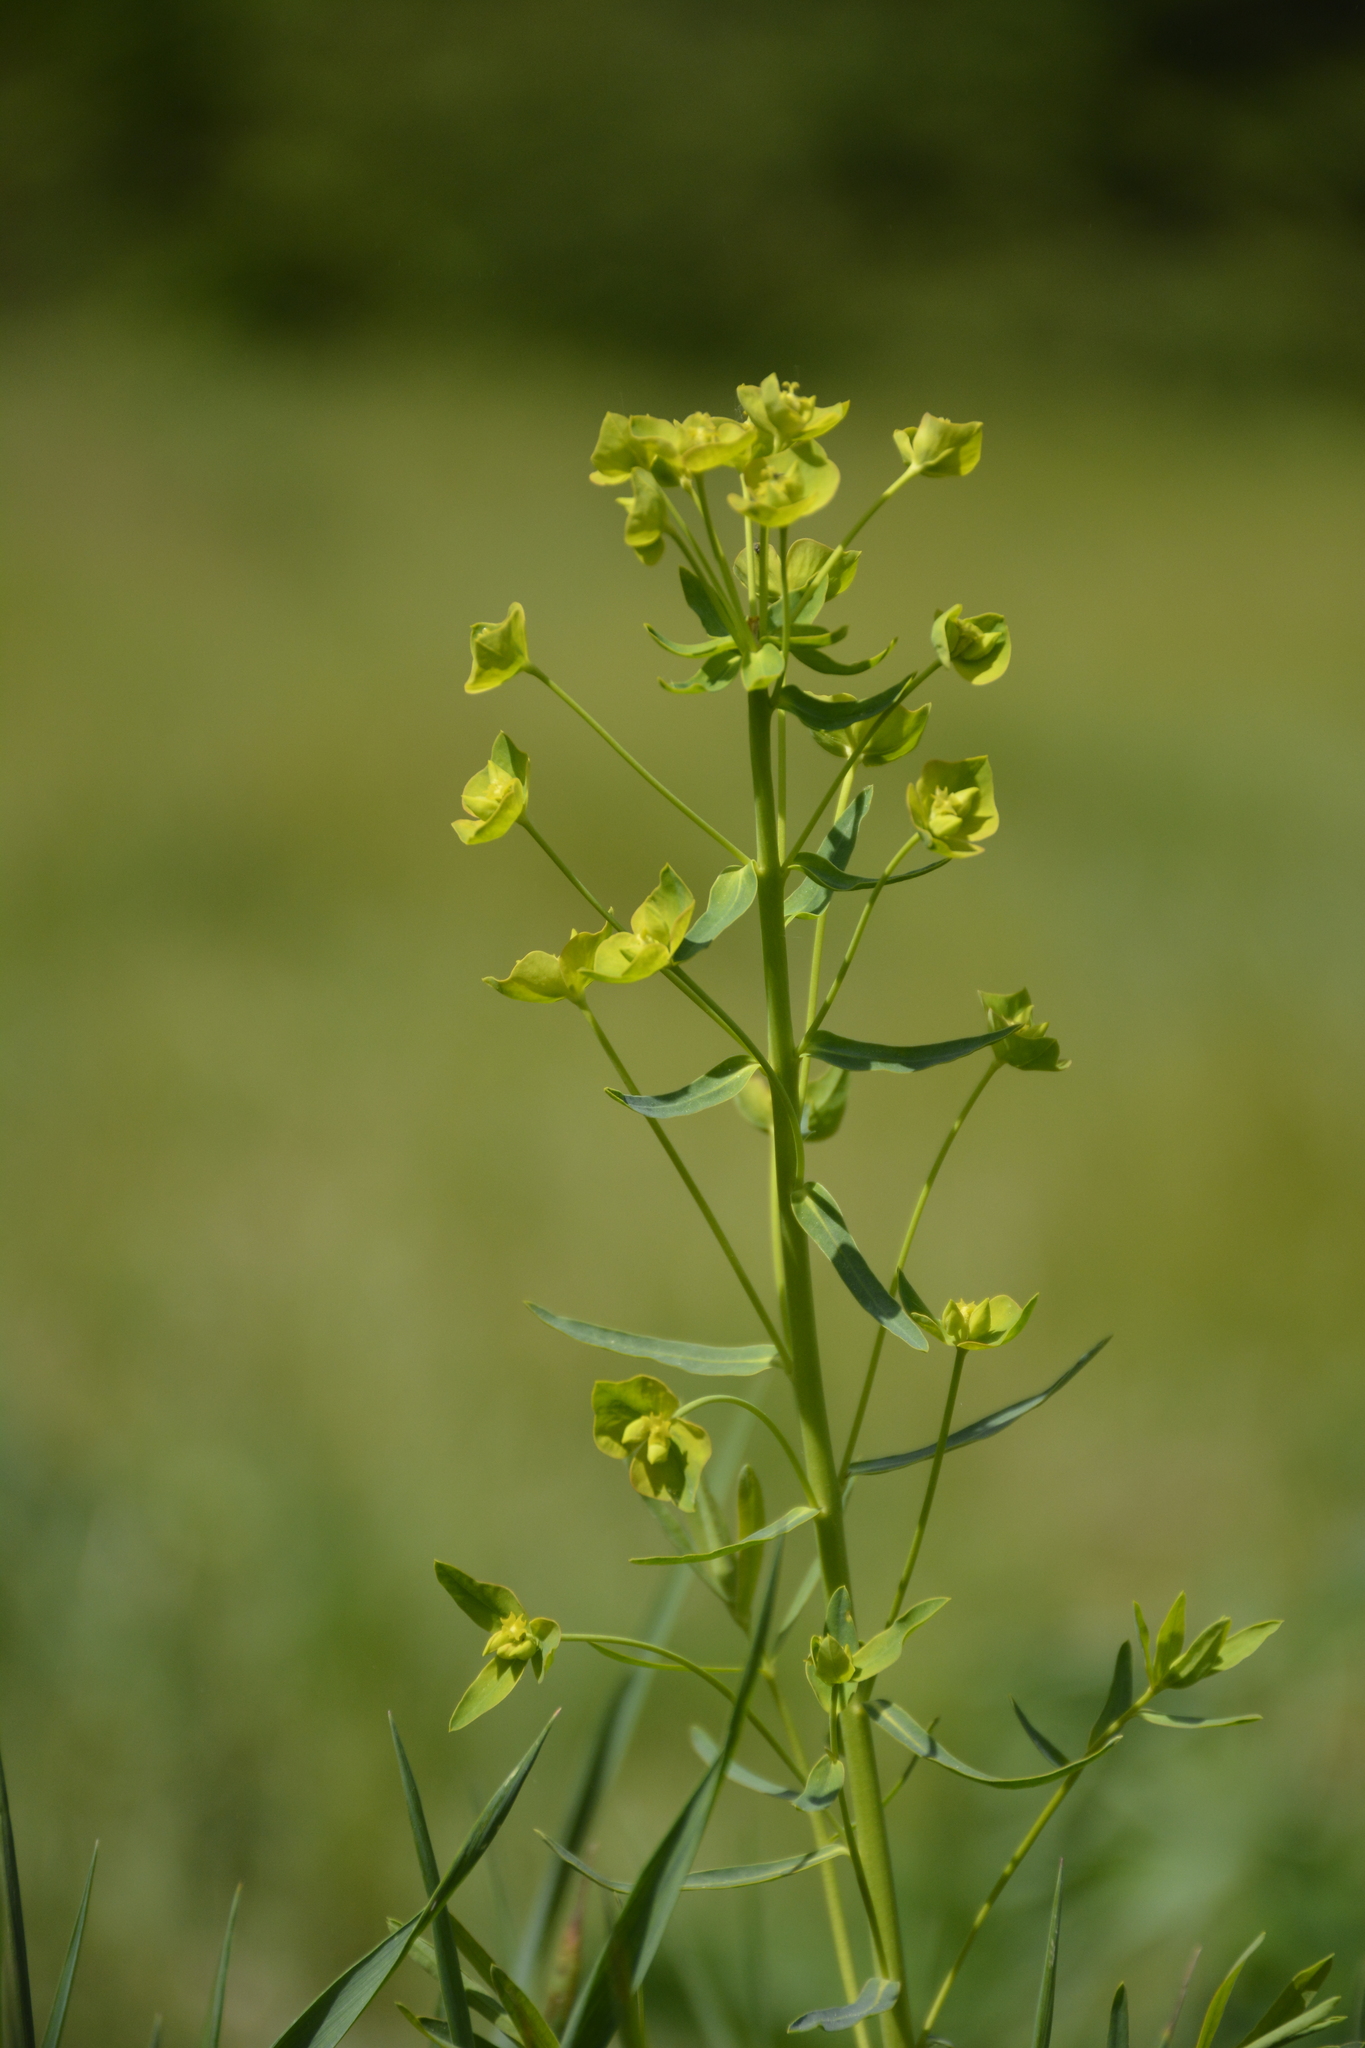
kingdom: Plantae
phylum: Tracheophyta
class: Magnoliopsida
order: Malpighiales
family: Euphorbiaceae
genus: Euphorbia
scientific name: Euphorbia virgata
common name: Leafy spurge
